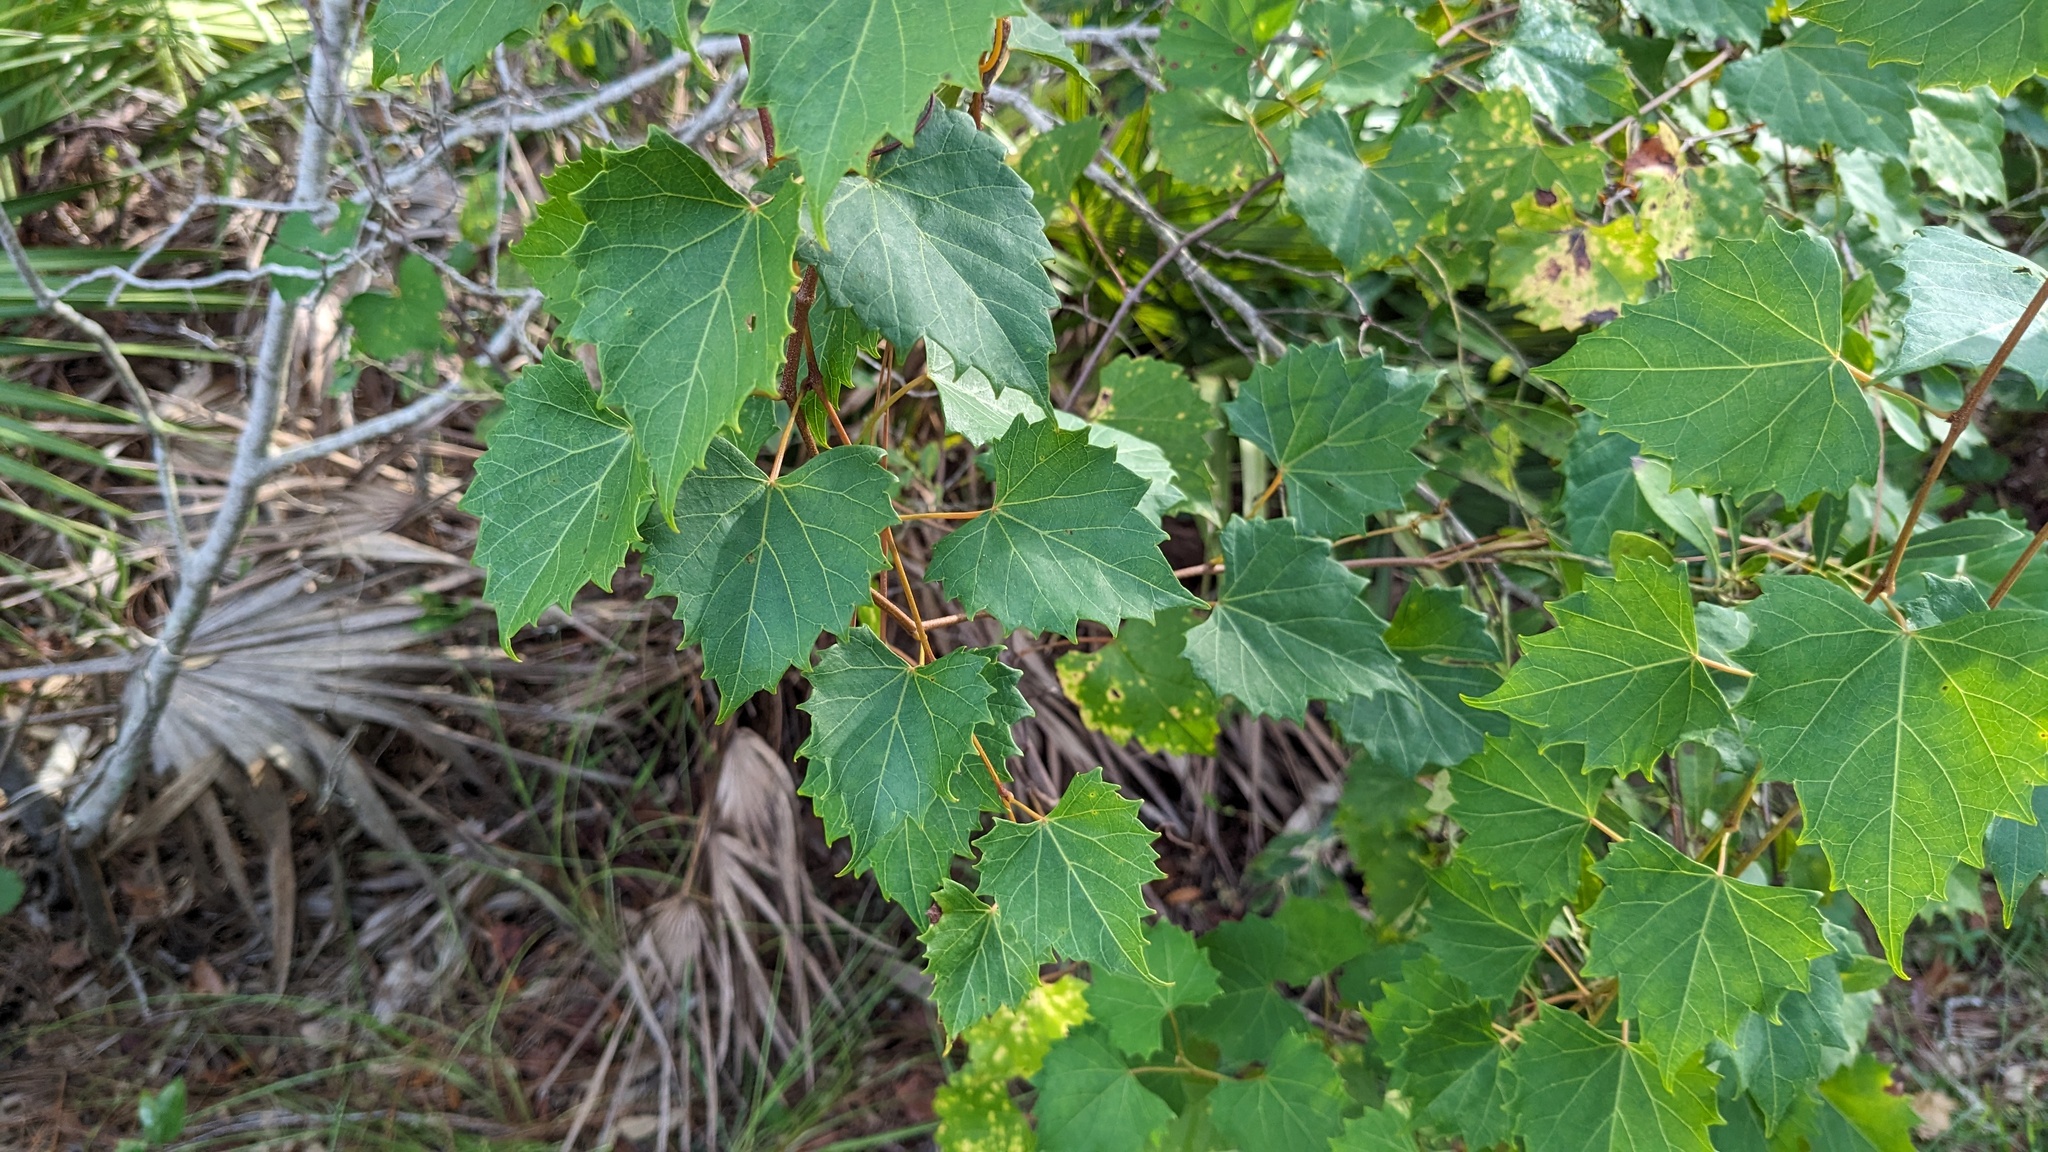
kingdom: Plantae
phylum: Tracheophyta
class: Magnoliopsida
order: Vitales
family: Vitaceae
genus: Vitis
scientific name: Vitis rotundifolia
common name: Muscadine grape
